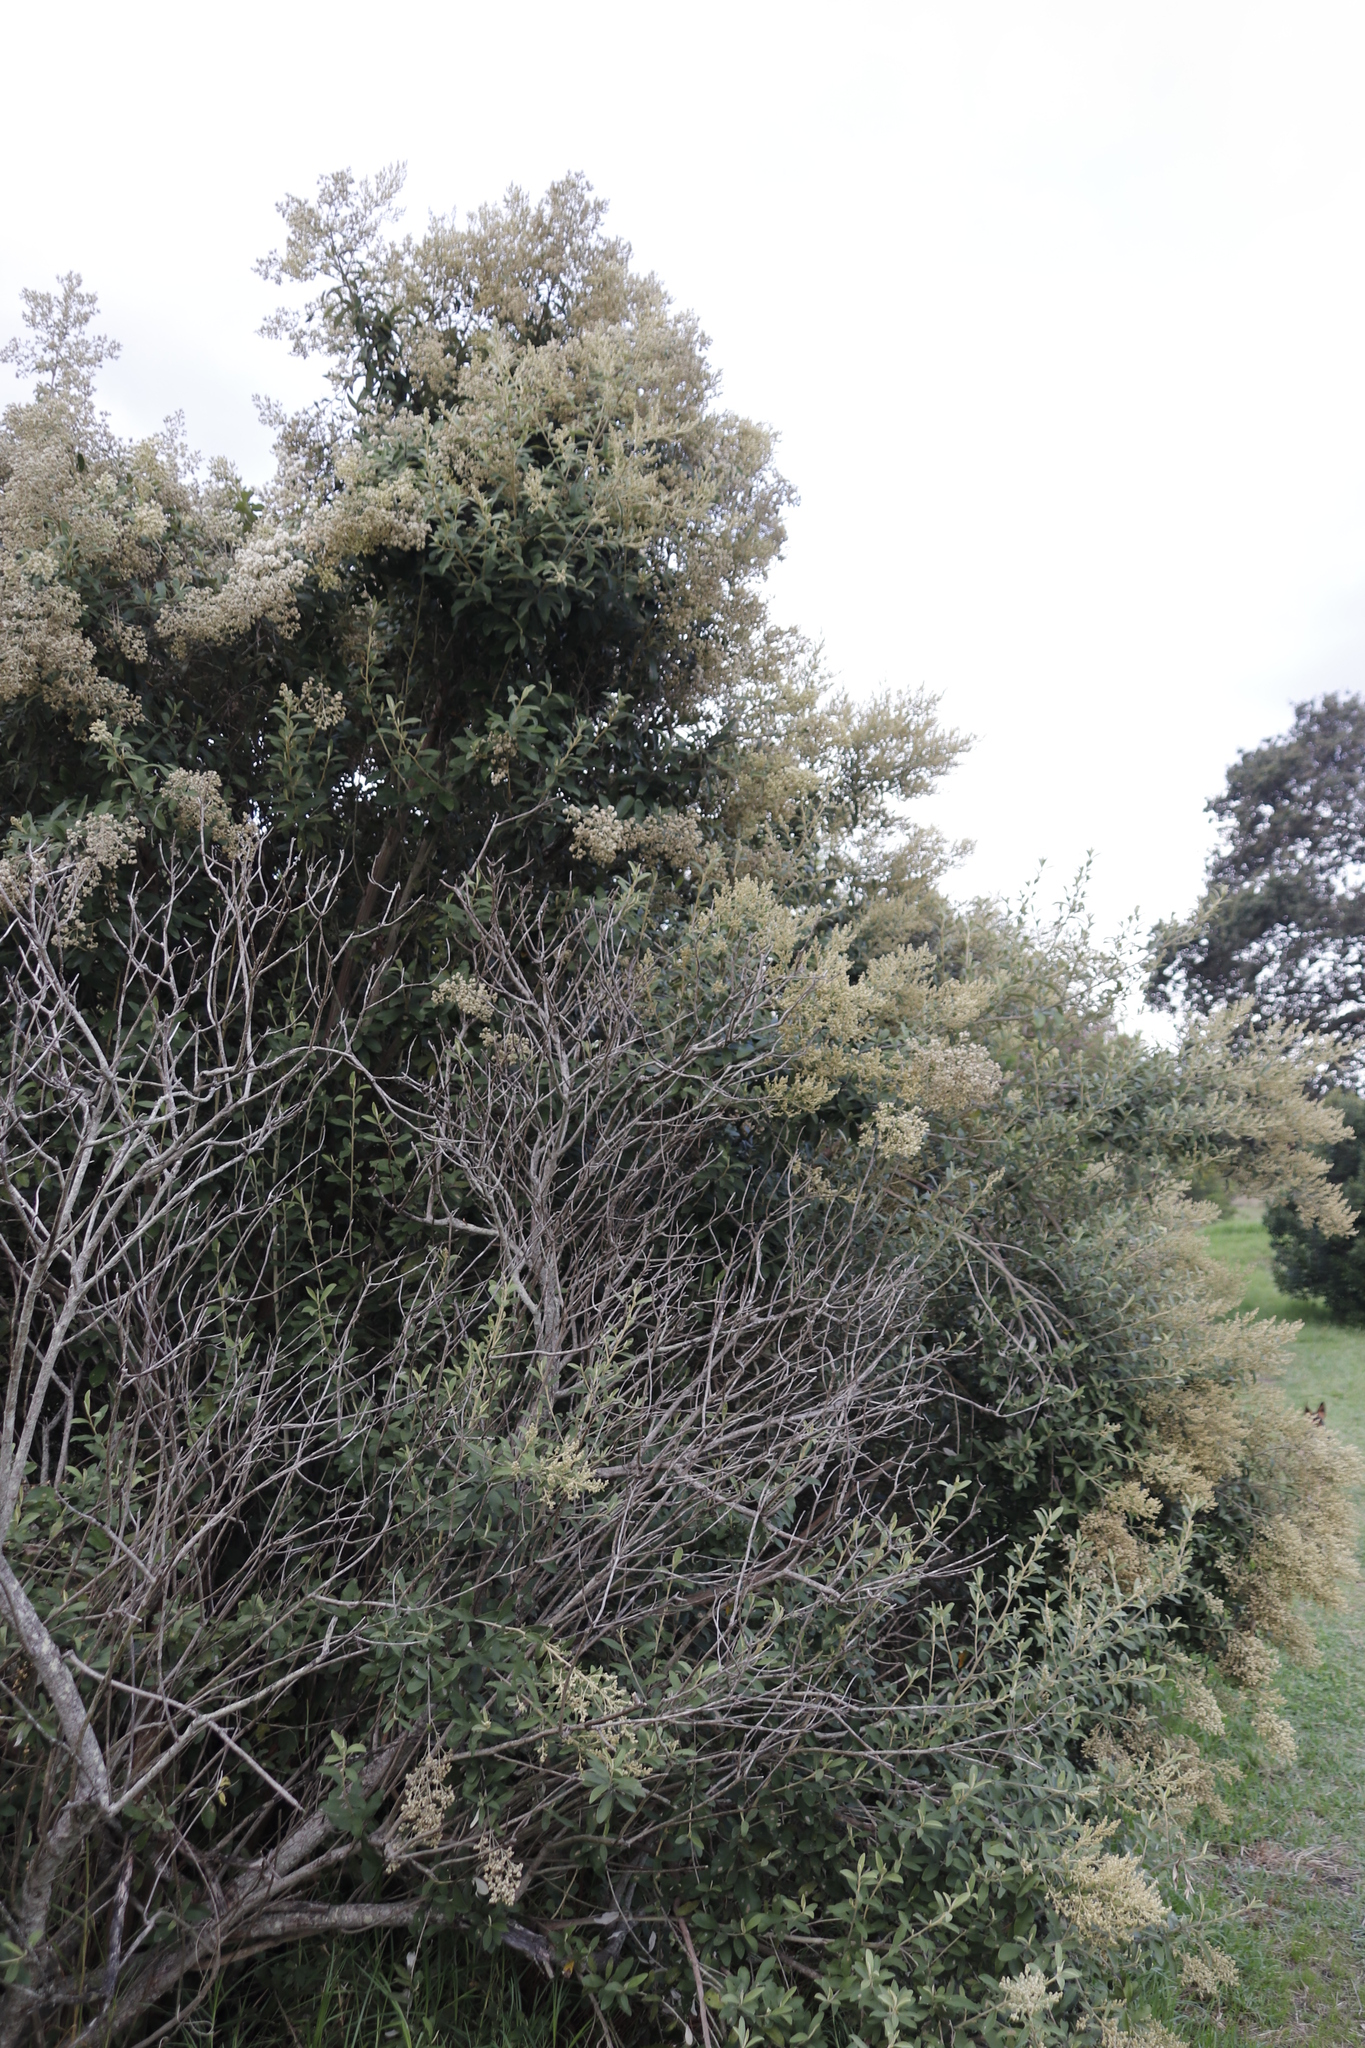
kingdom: Plantae
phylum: Tracheophyta
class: Magnoliopsida
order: Asterales
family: Asteraceae
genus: Tarchonanthus
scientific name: Tarchonanthus littoralis
